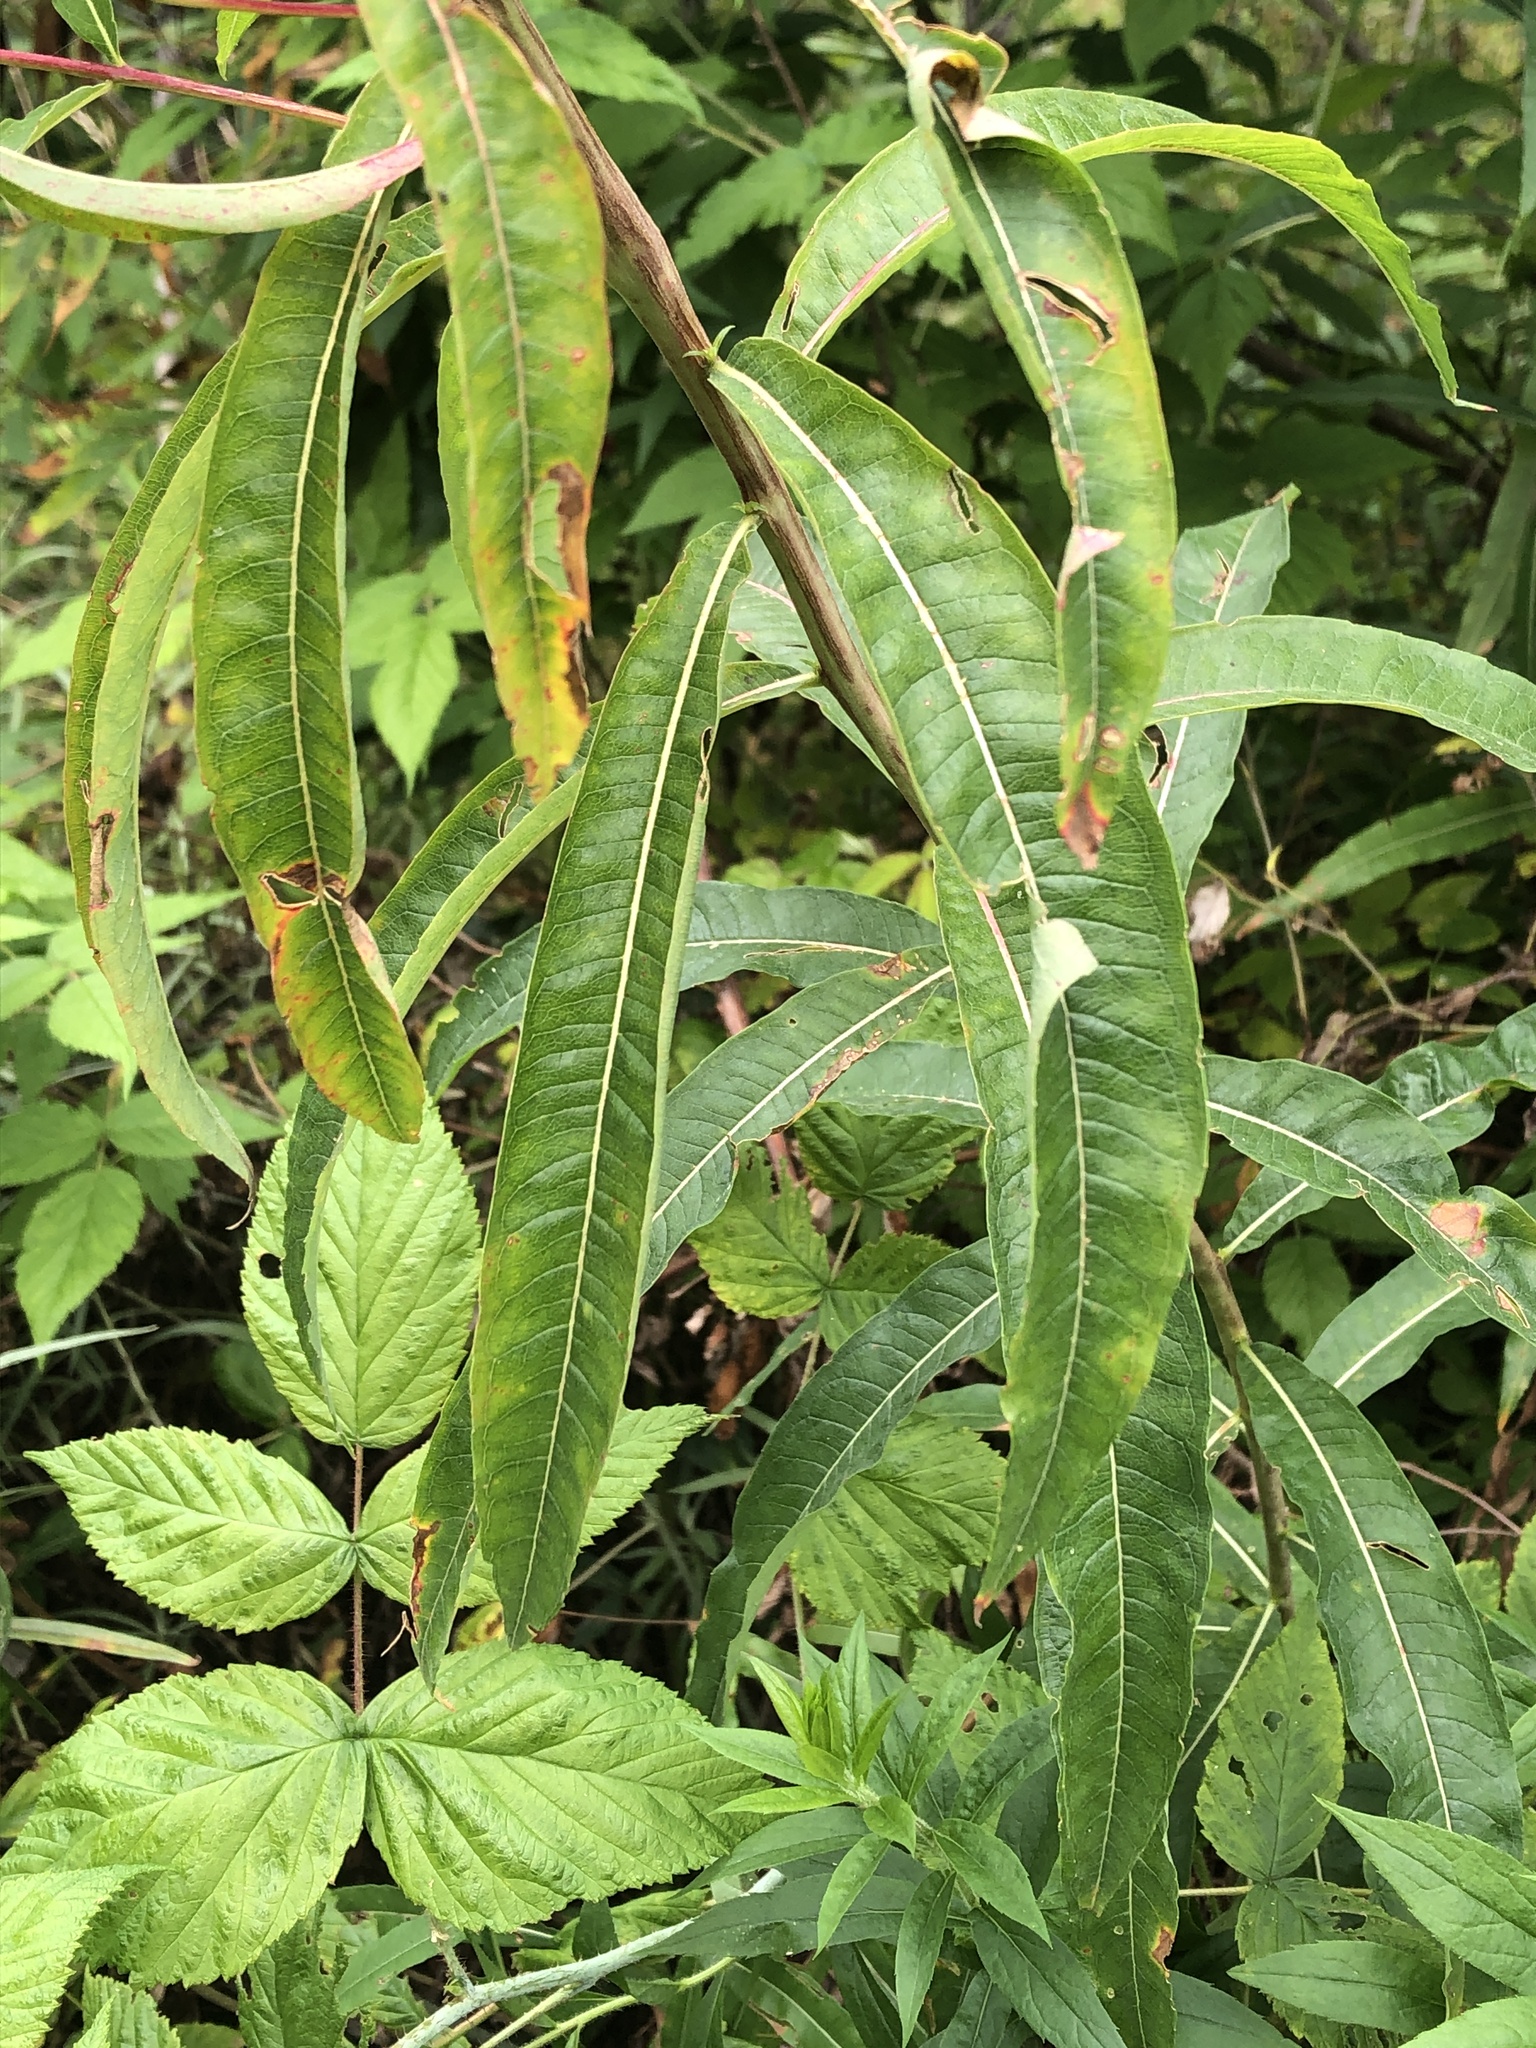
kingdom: Plantae
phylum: Tracheophyta
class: Magnoliopsida
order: Myrtales
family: Onagraceae
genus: Chamaenerion
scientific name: Chamaenerion angustifolium
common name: Fireweed
